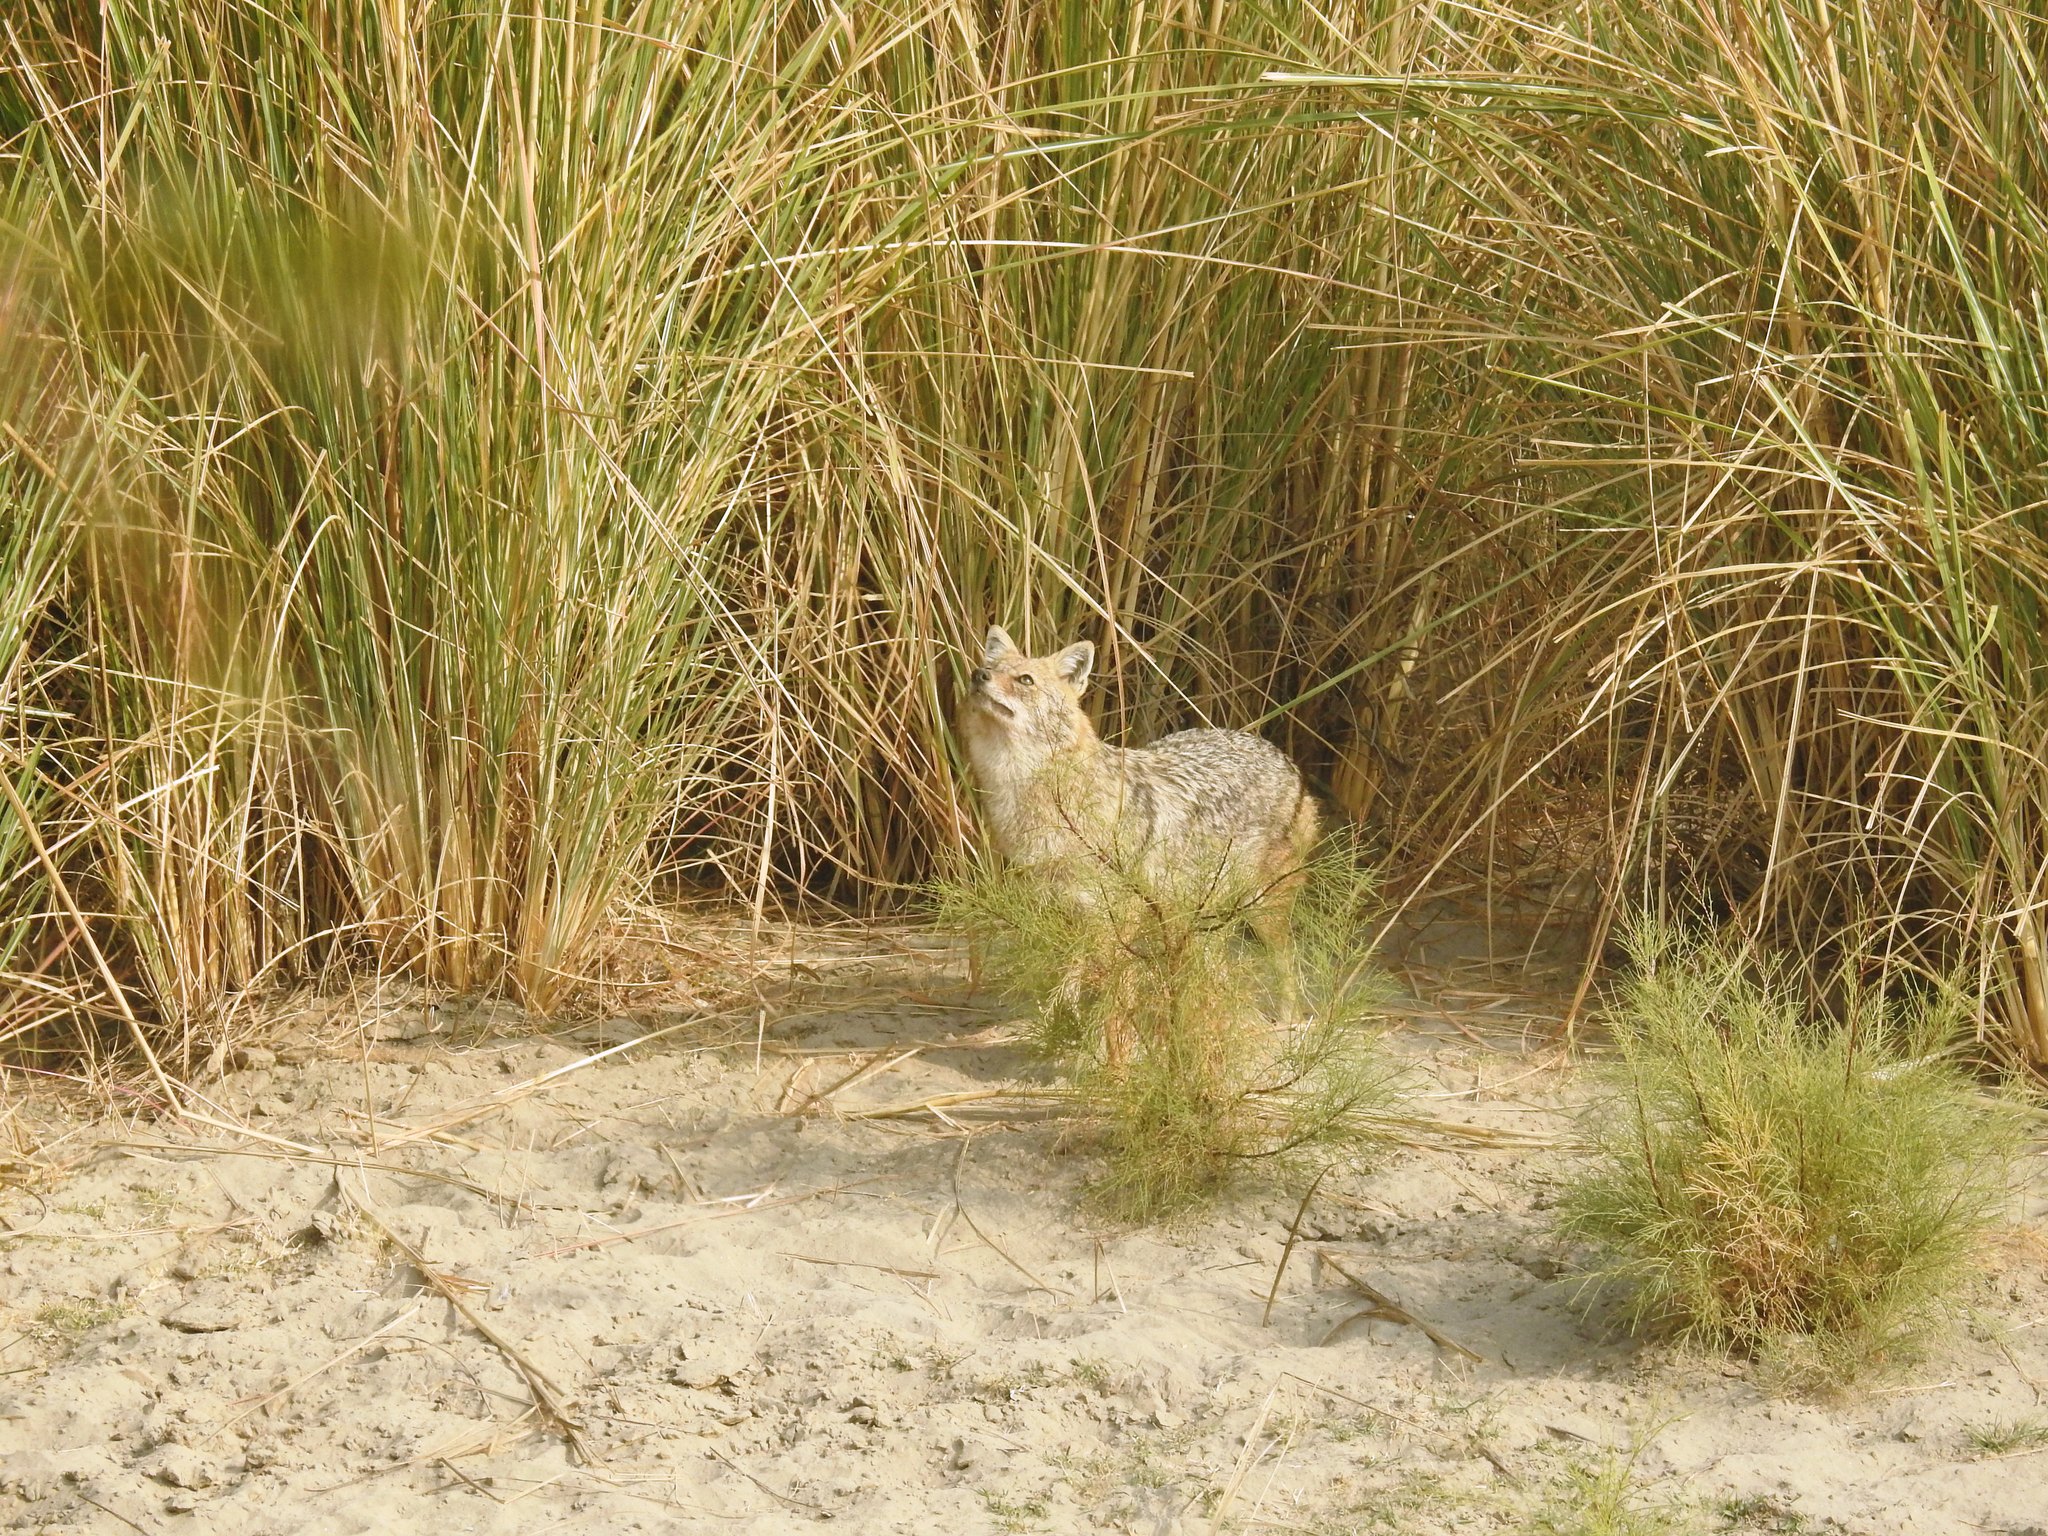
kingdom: Animalia
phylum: Chordata
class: Mammalia
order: Carnivora
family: Canidae
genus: Canis
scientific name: Canis aureus
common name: Golden jackal
